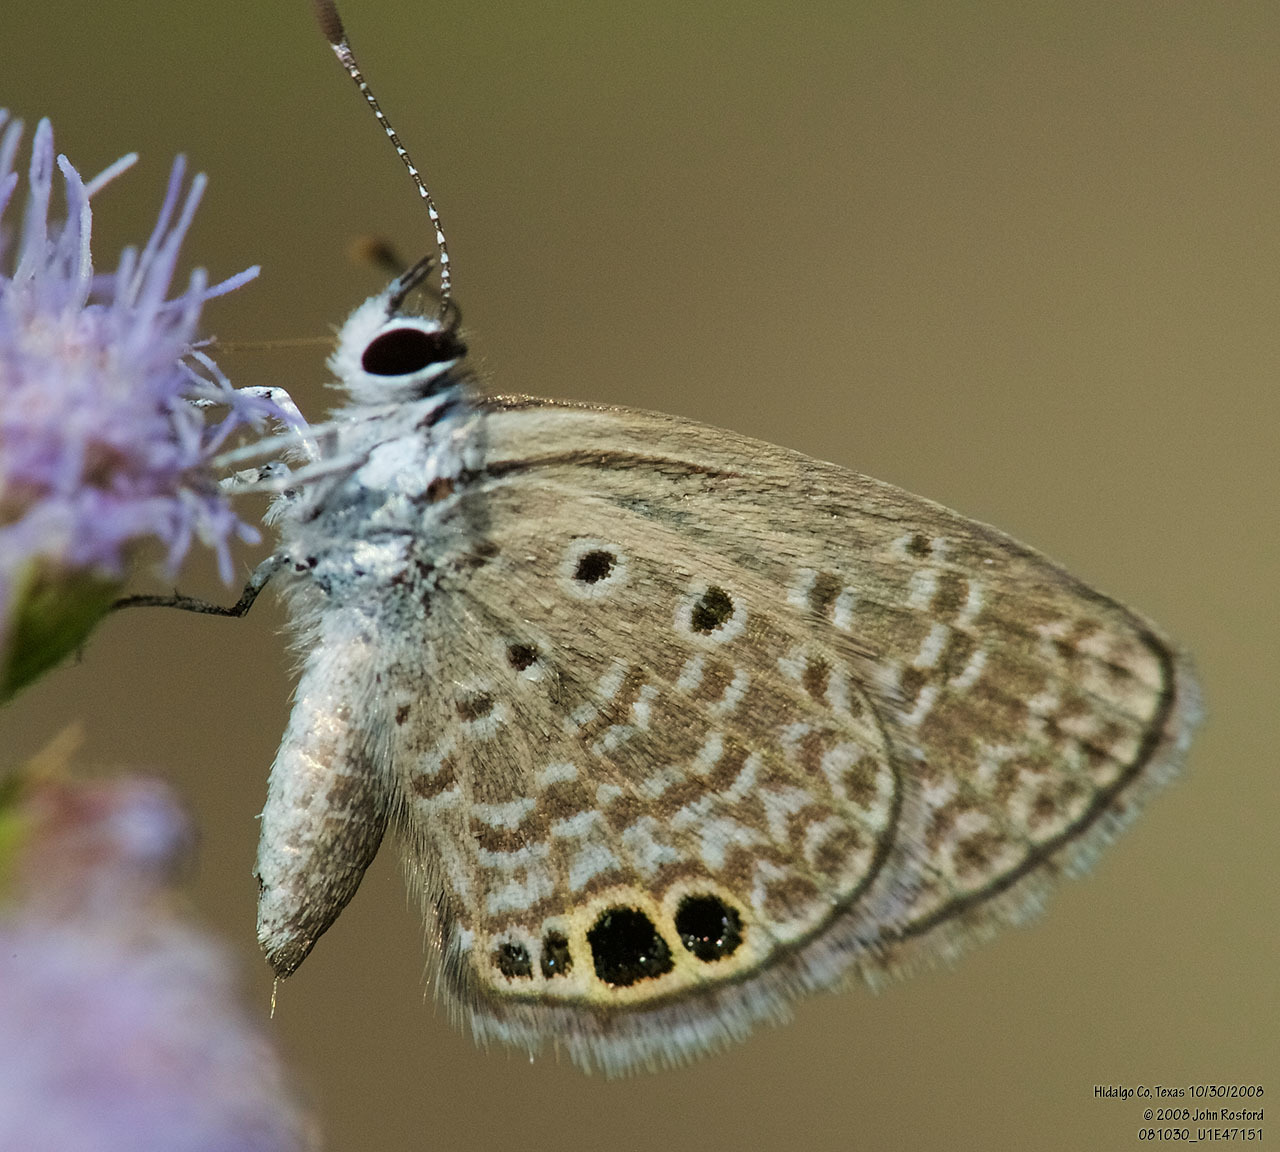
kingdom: Animalia
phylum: Arthropoda
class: Insecta
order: Lepidoptera
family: Lycaenidae
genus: Hemiargus
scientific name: Hemiargus ceraunus
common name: Ceraunus blue
